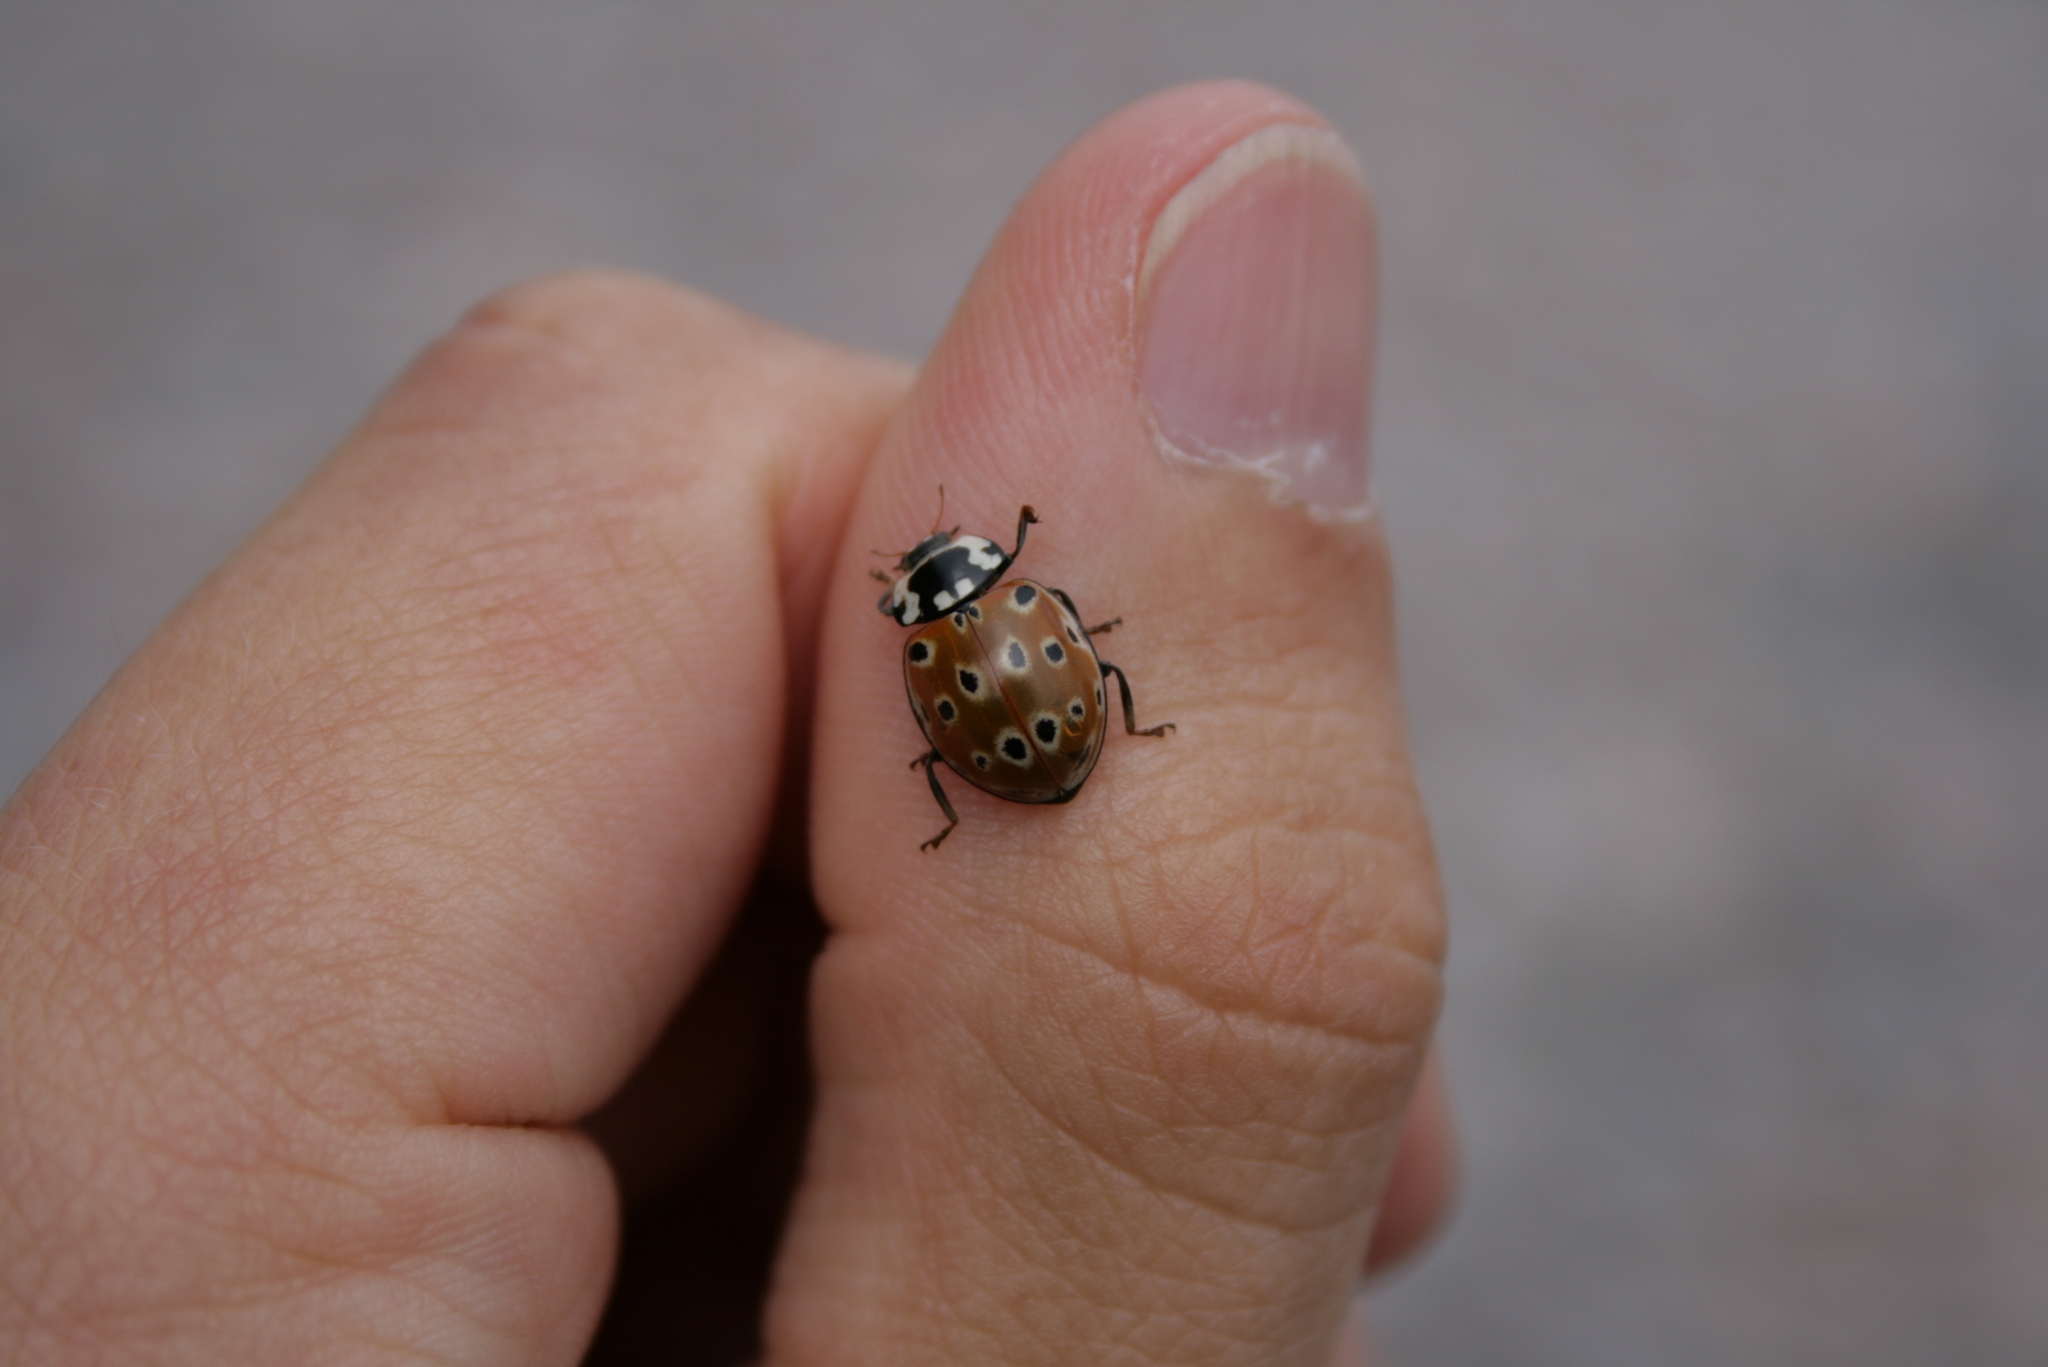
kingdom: Animalia
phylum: Arthropoda
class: Insecta
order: Coleoptera
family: Coccinellidae
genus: Anatis
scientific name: Anatis ocellata
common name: Eyed ladybird
